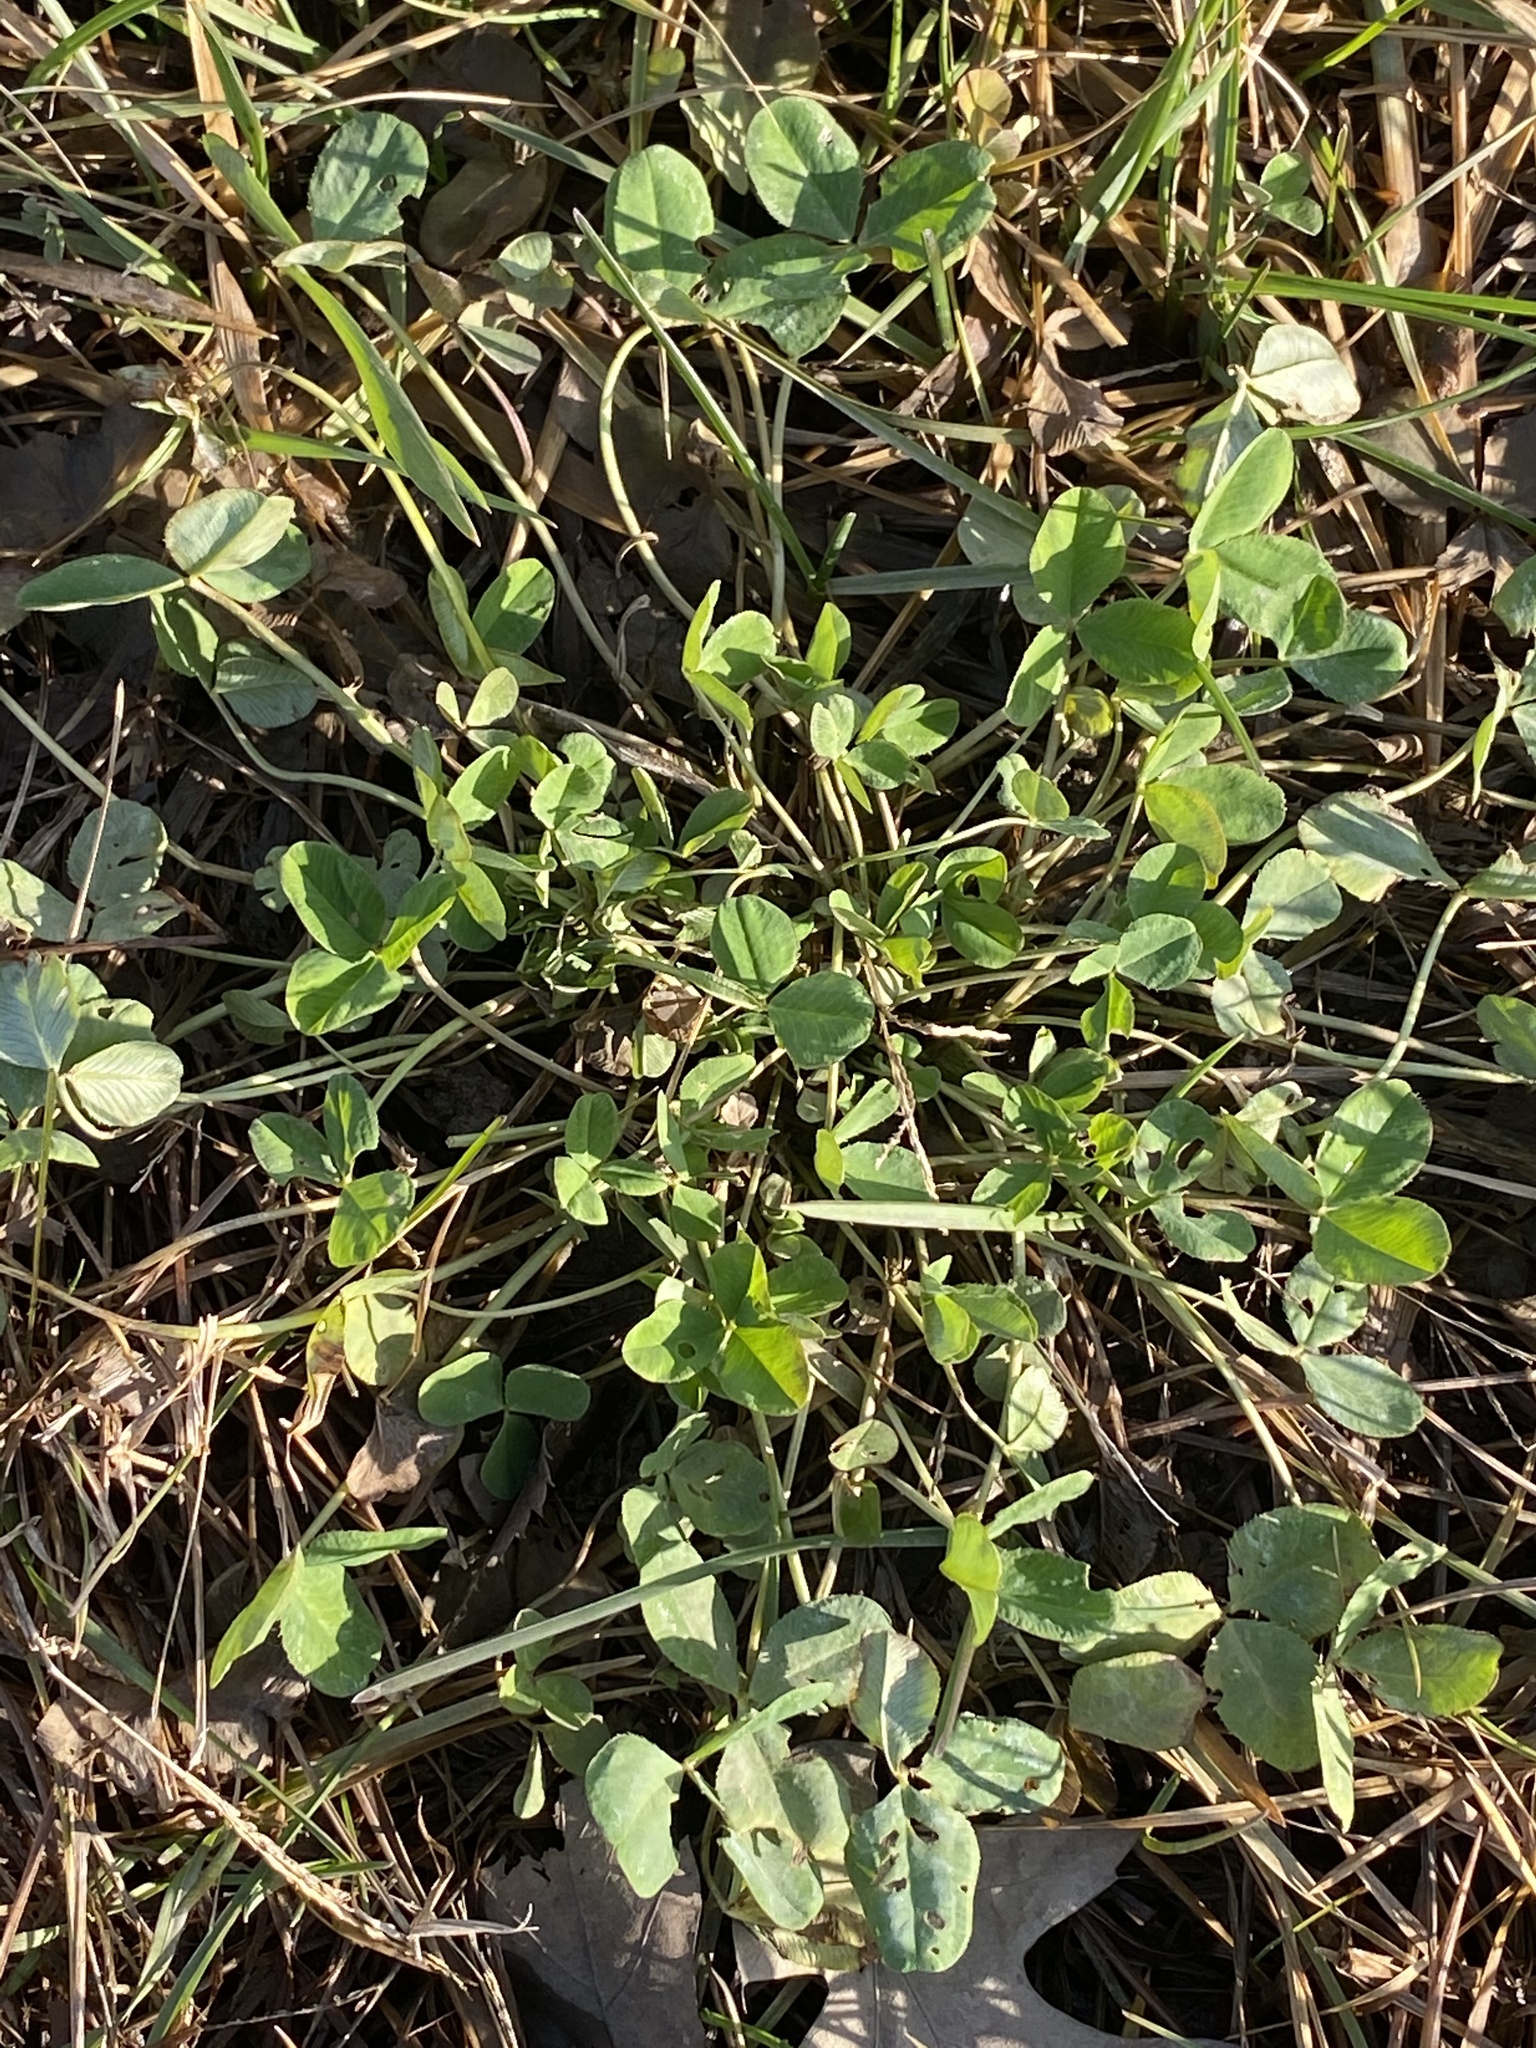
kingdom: Plantae
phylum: Tracheophyta
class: Magnoliopsida
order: Fabales
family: Fabaceae
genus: Trifolium
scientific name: Trifolium repens
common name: White clover
